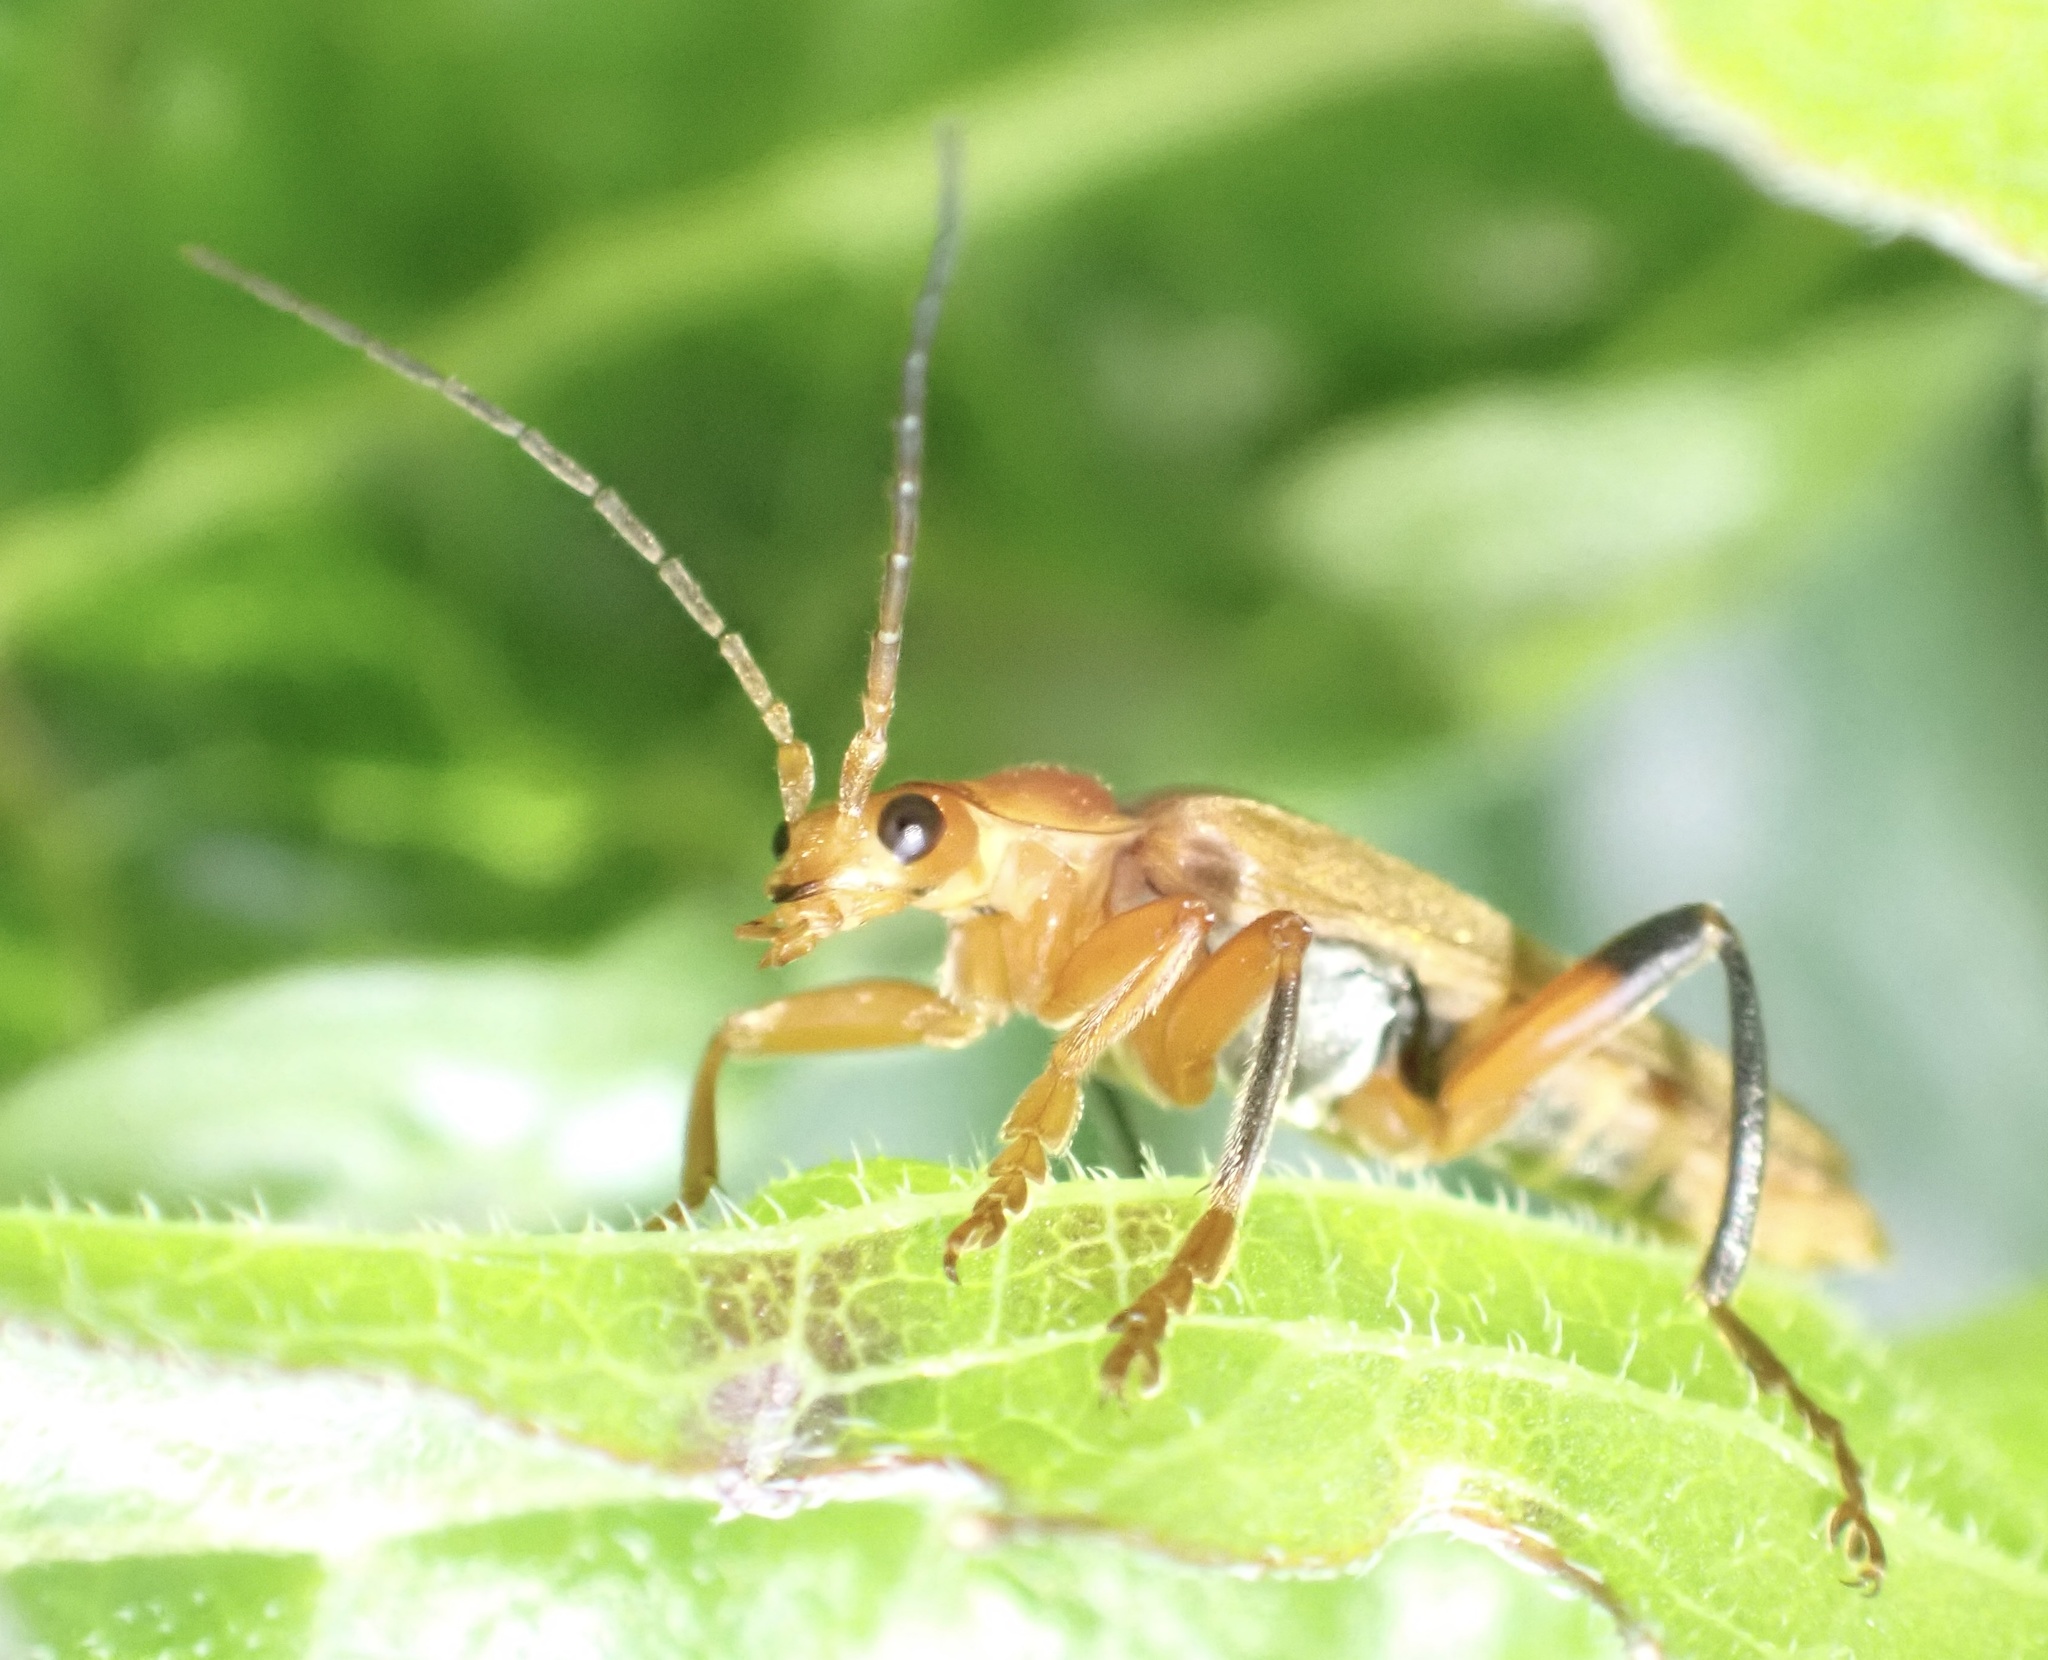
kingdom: Animalia
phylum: Arthropoda
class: Insecta
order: Coleoptera
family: Cantharidae
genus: Cantharis
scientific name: Cantharis livida
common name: Livid soldier beetle
